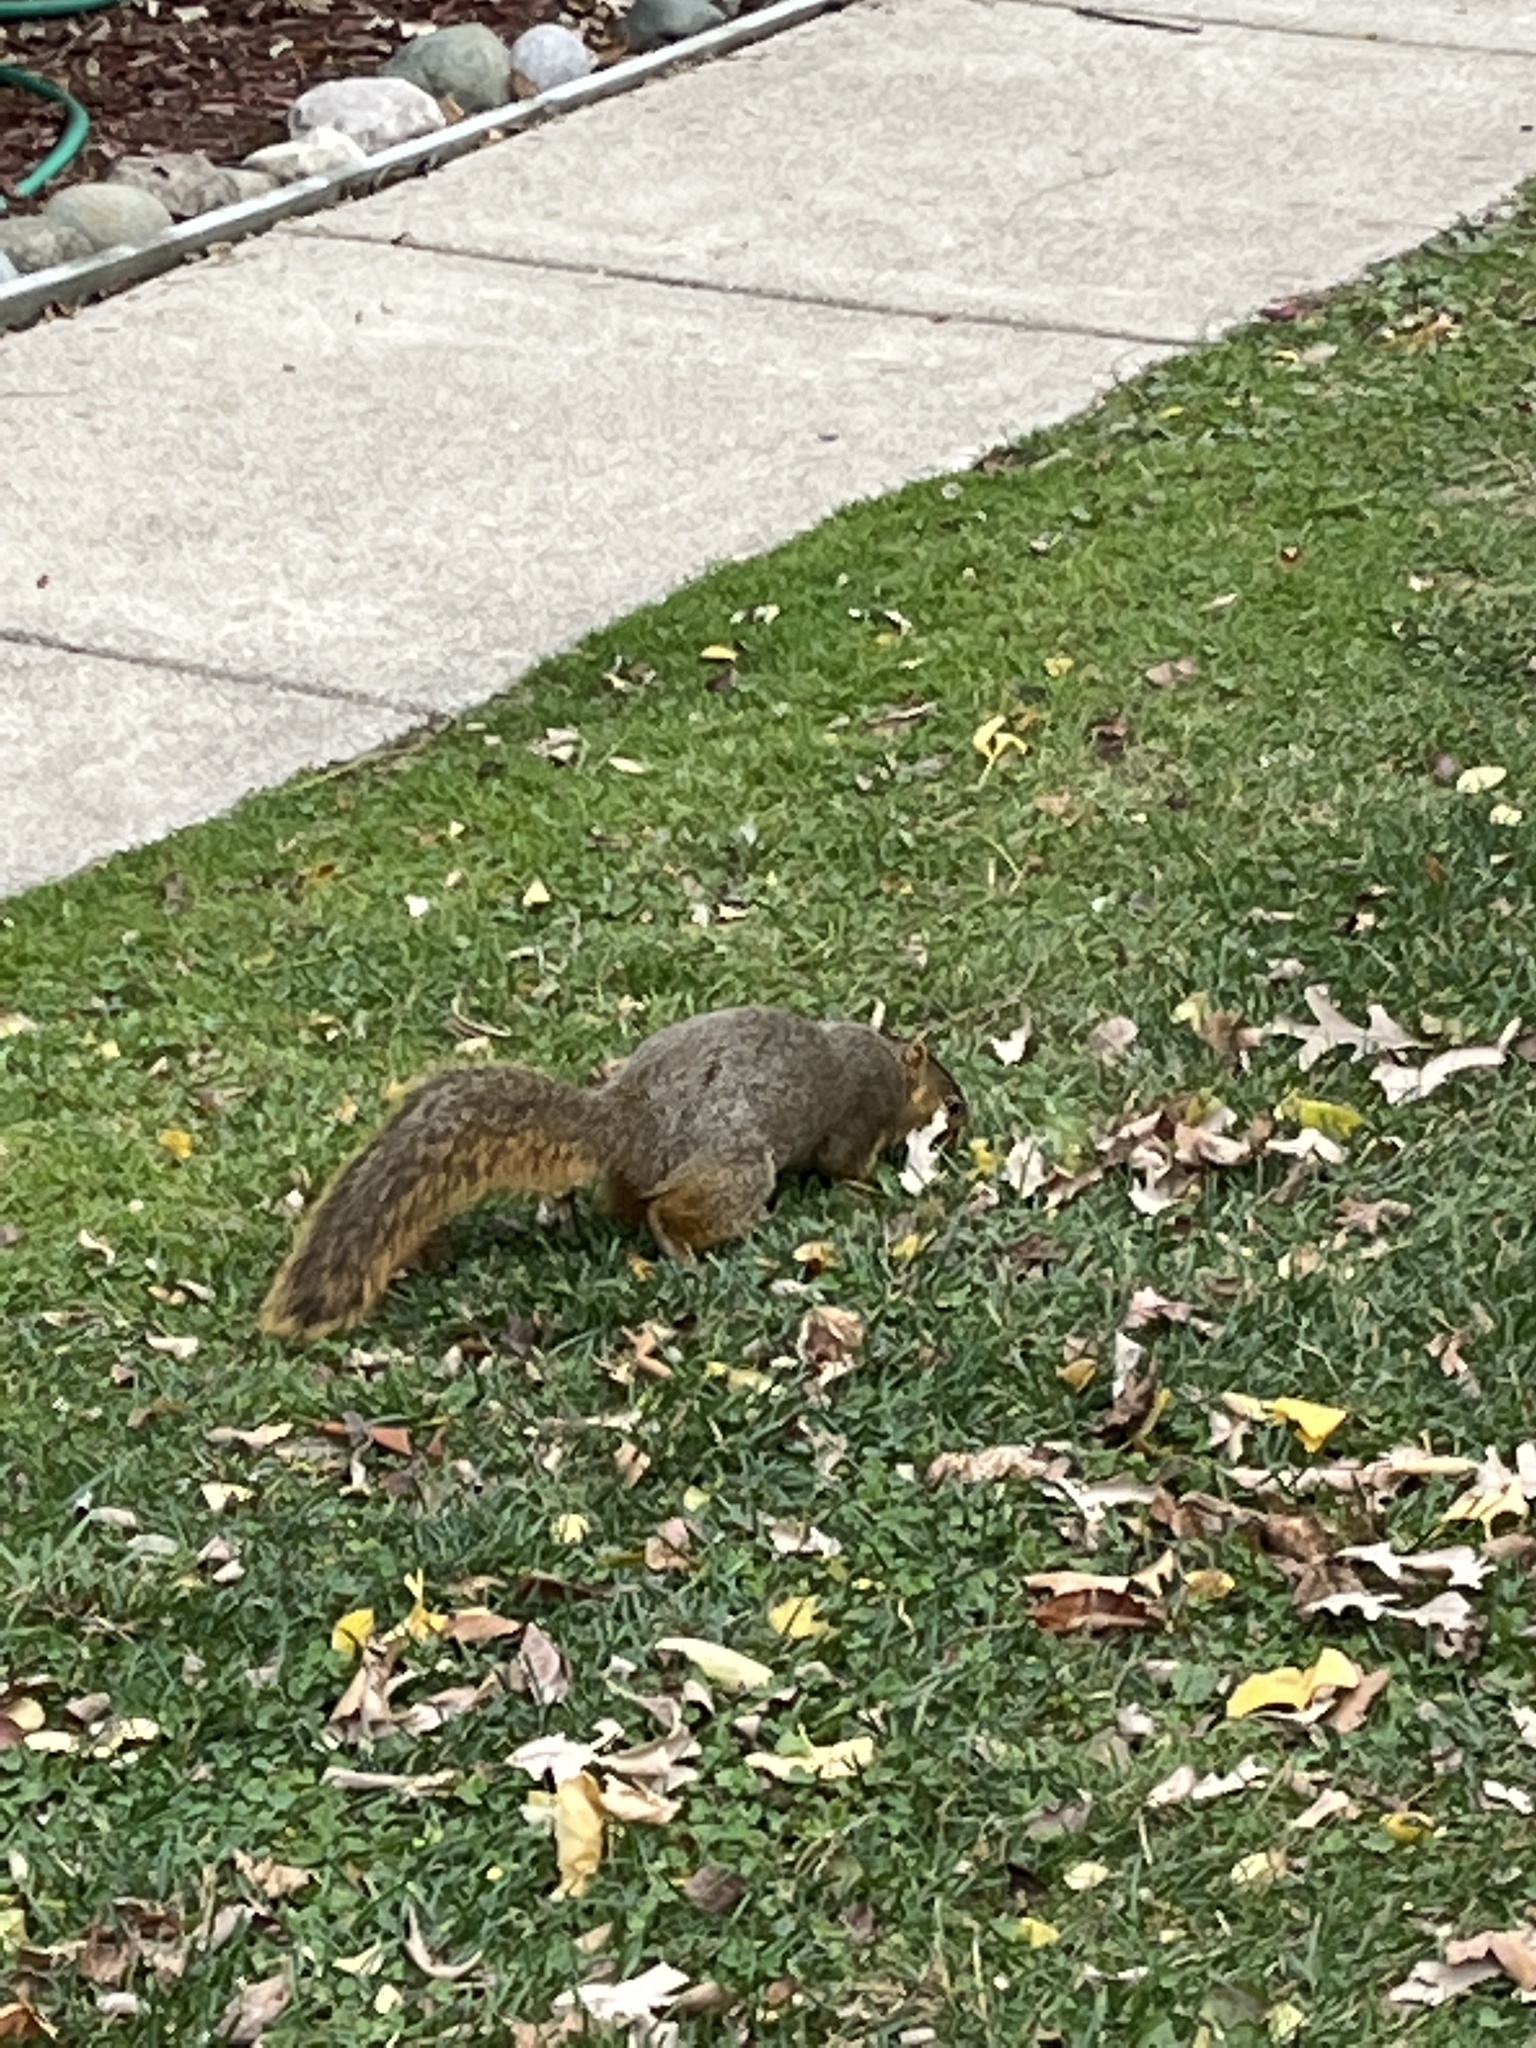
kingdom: Animalia
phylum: Chordata
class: Mammalia
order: Rodentia
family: Sciuridae
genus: Sciurus
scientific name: Sciurus niger
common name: Fox squirrel
